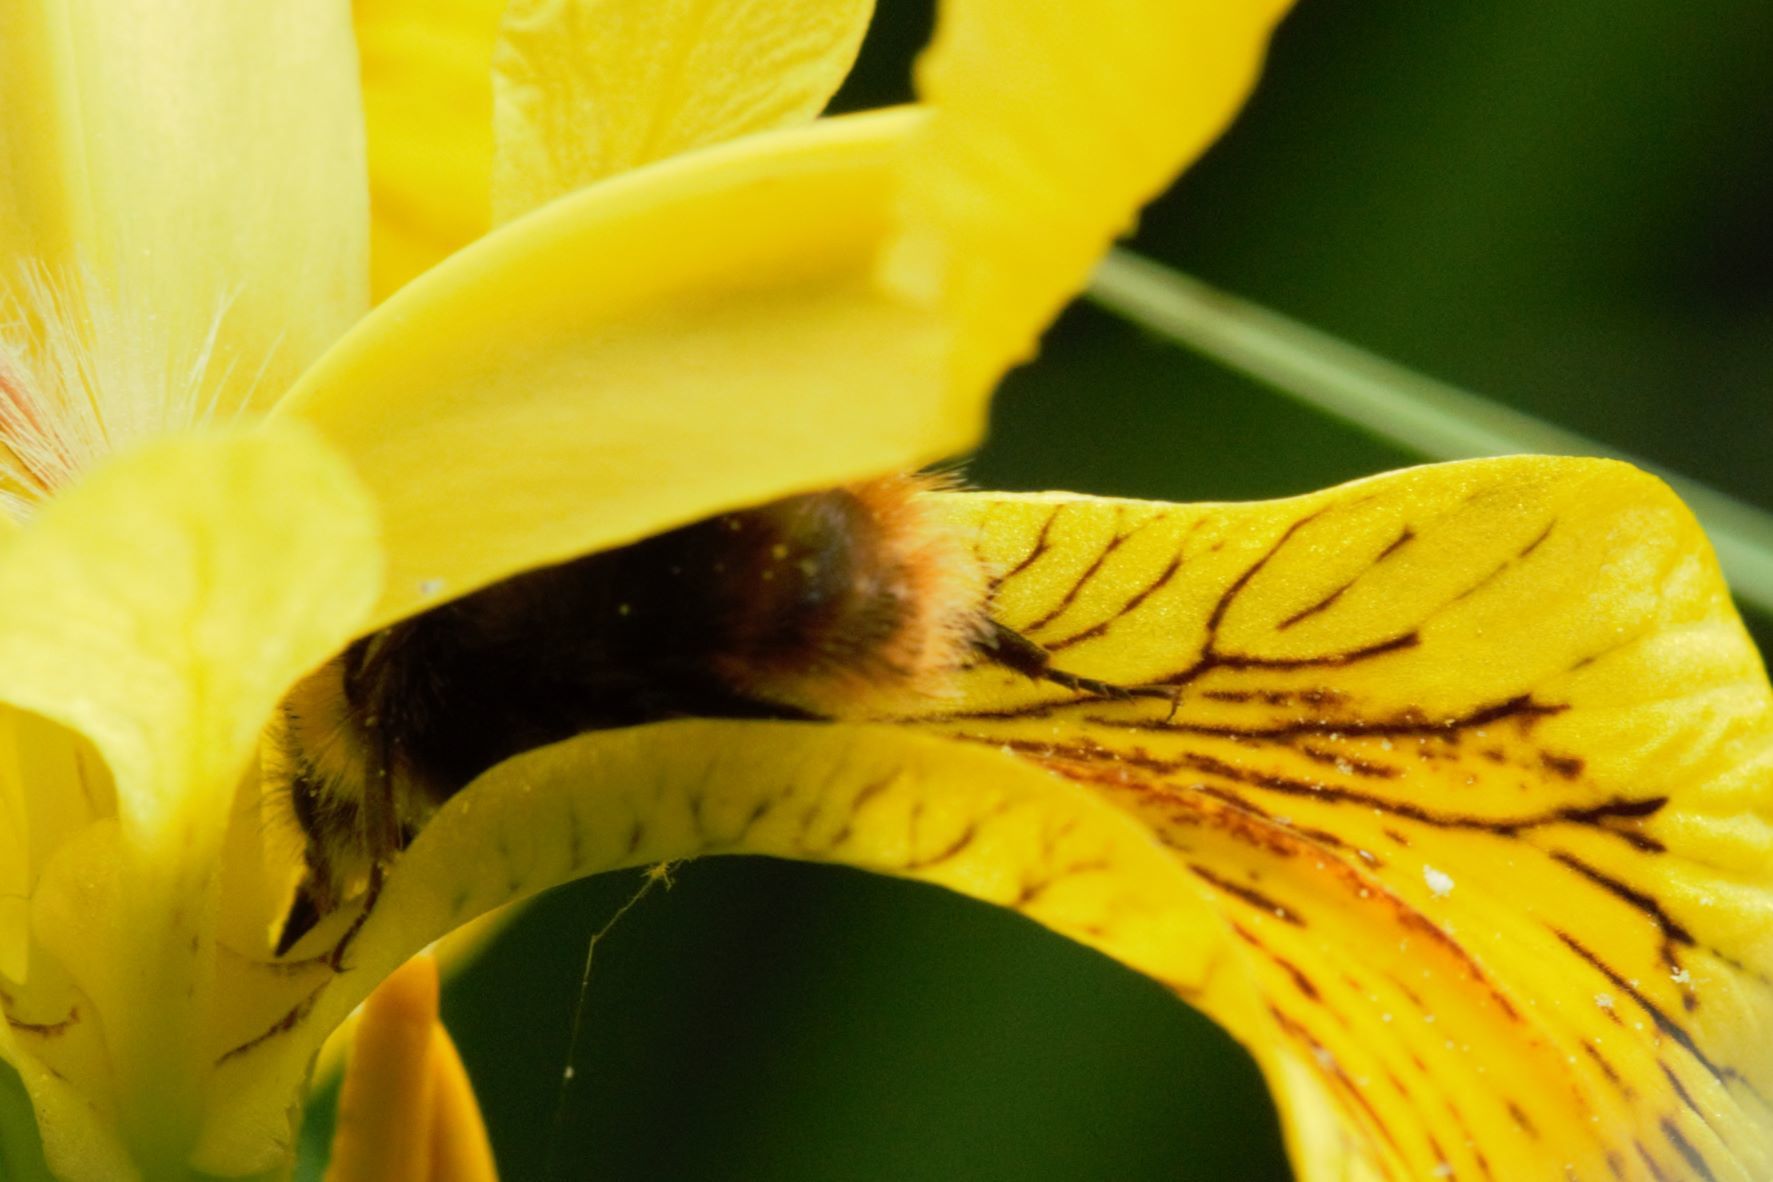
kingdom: Animalia
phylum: Arthropoda
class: Insecta
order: Hymenoptera
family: Apidae
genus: Bombus
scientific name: Bombus pratorum
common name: Early humble-bee
